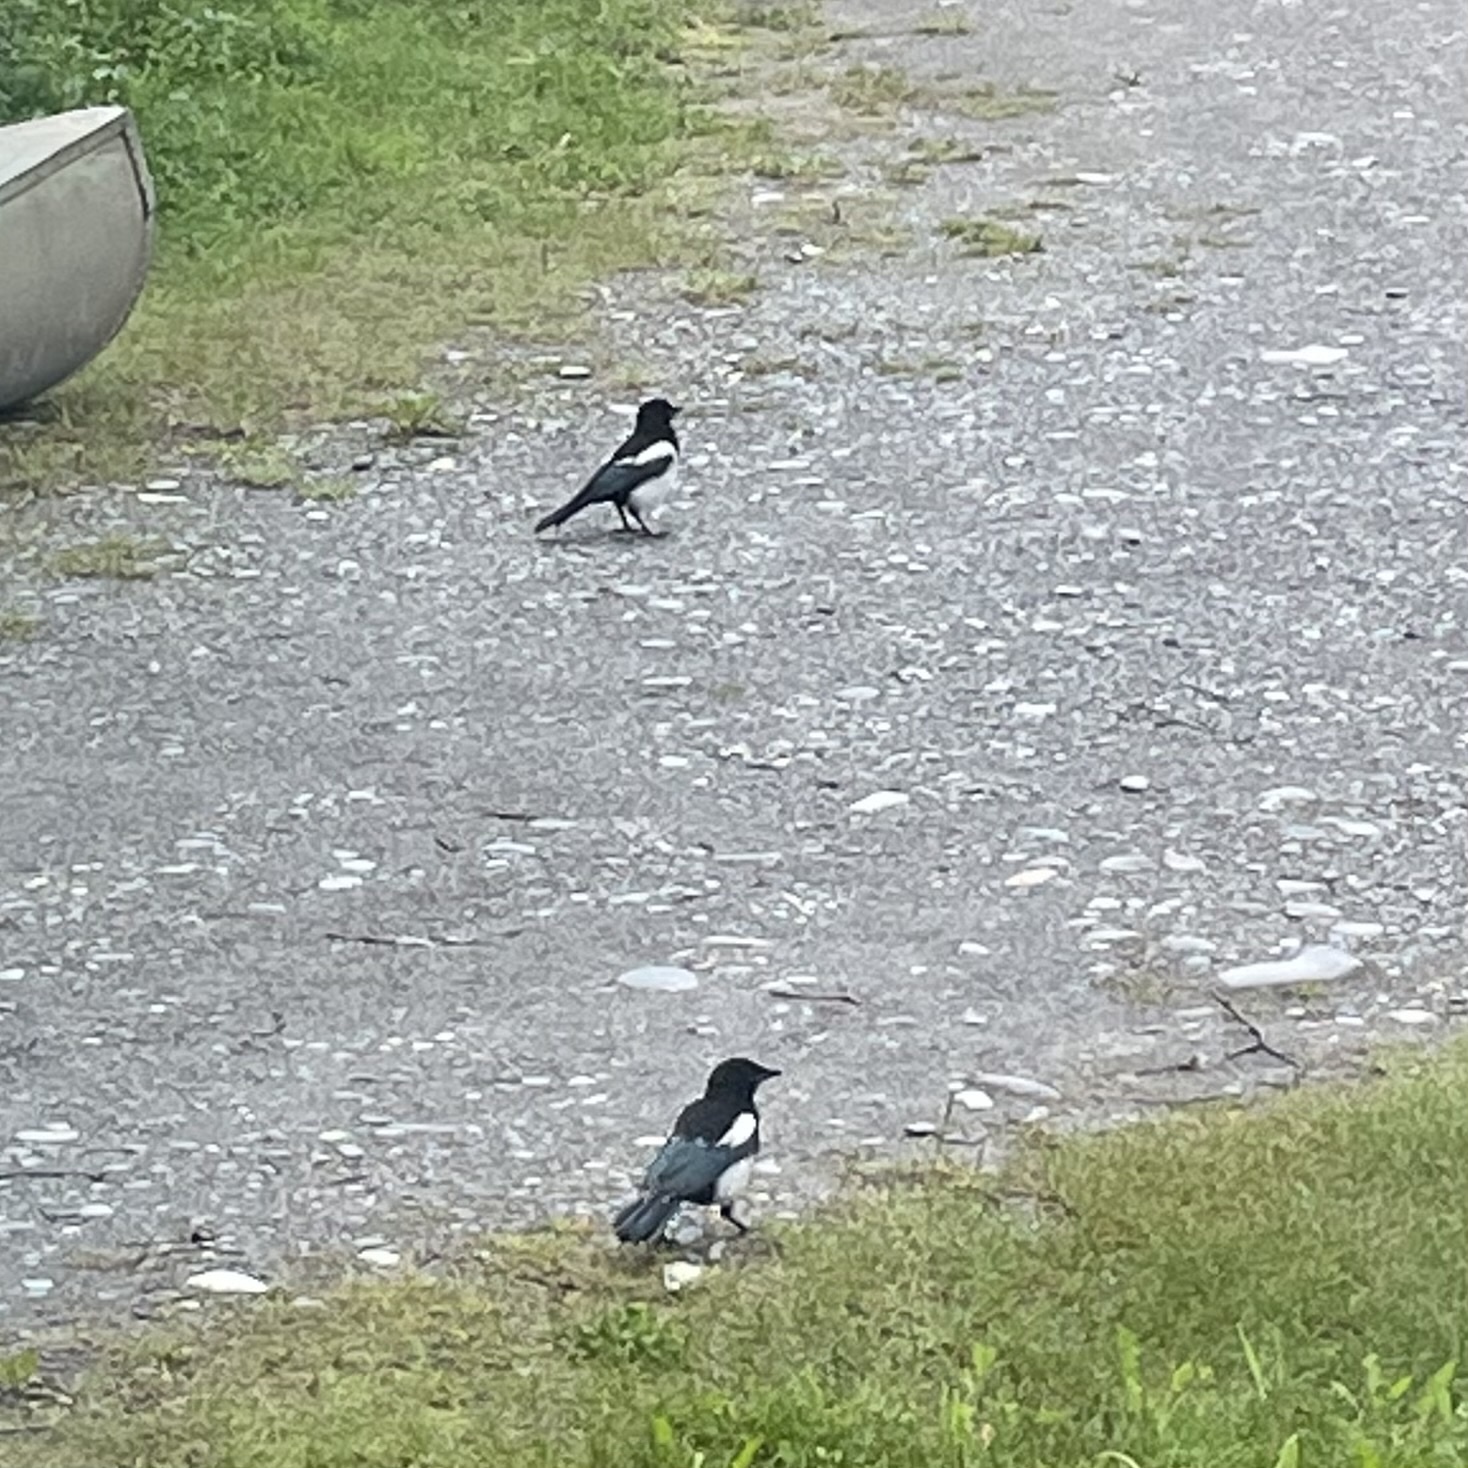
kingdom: Animalia
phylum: Chordata
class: Aves
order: Passeriformes
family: Corvidae
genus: Pica
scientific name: Pica hudsonia
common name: Black-billed magpie
